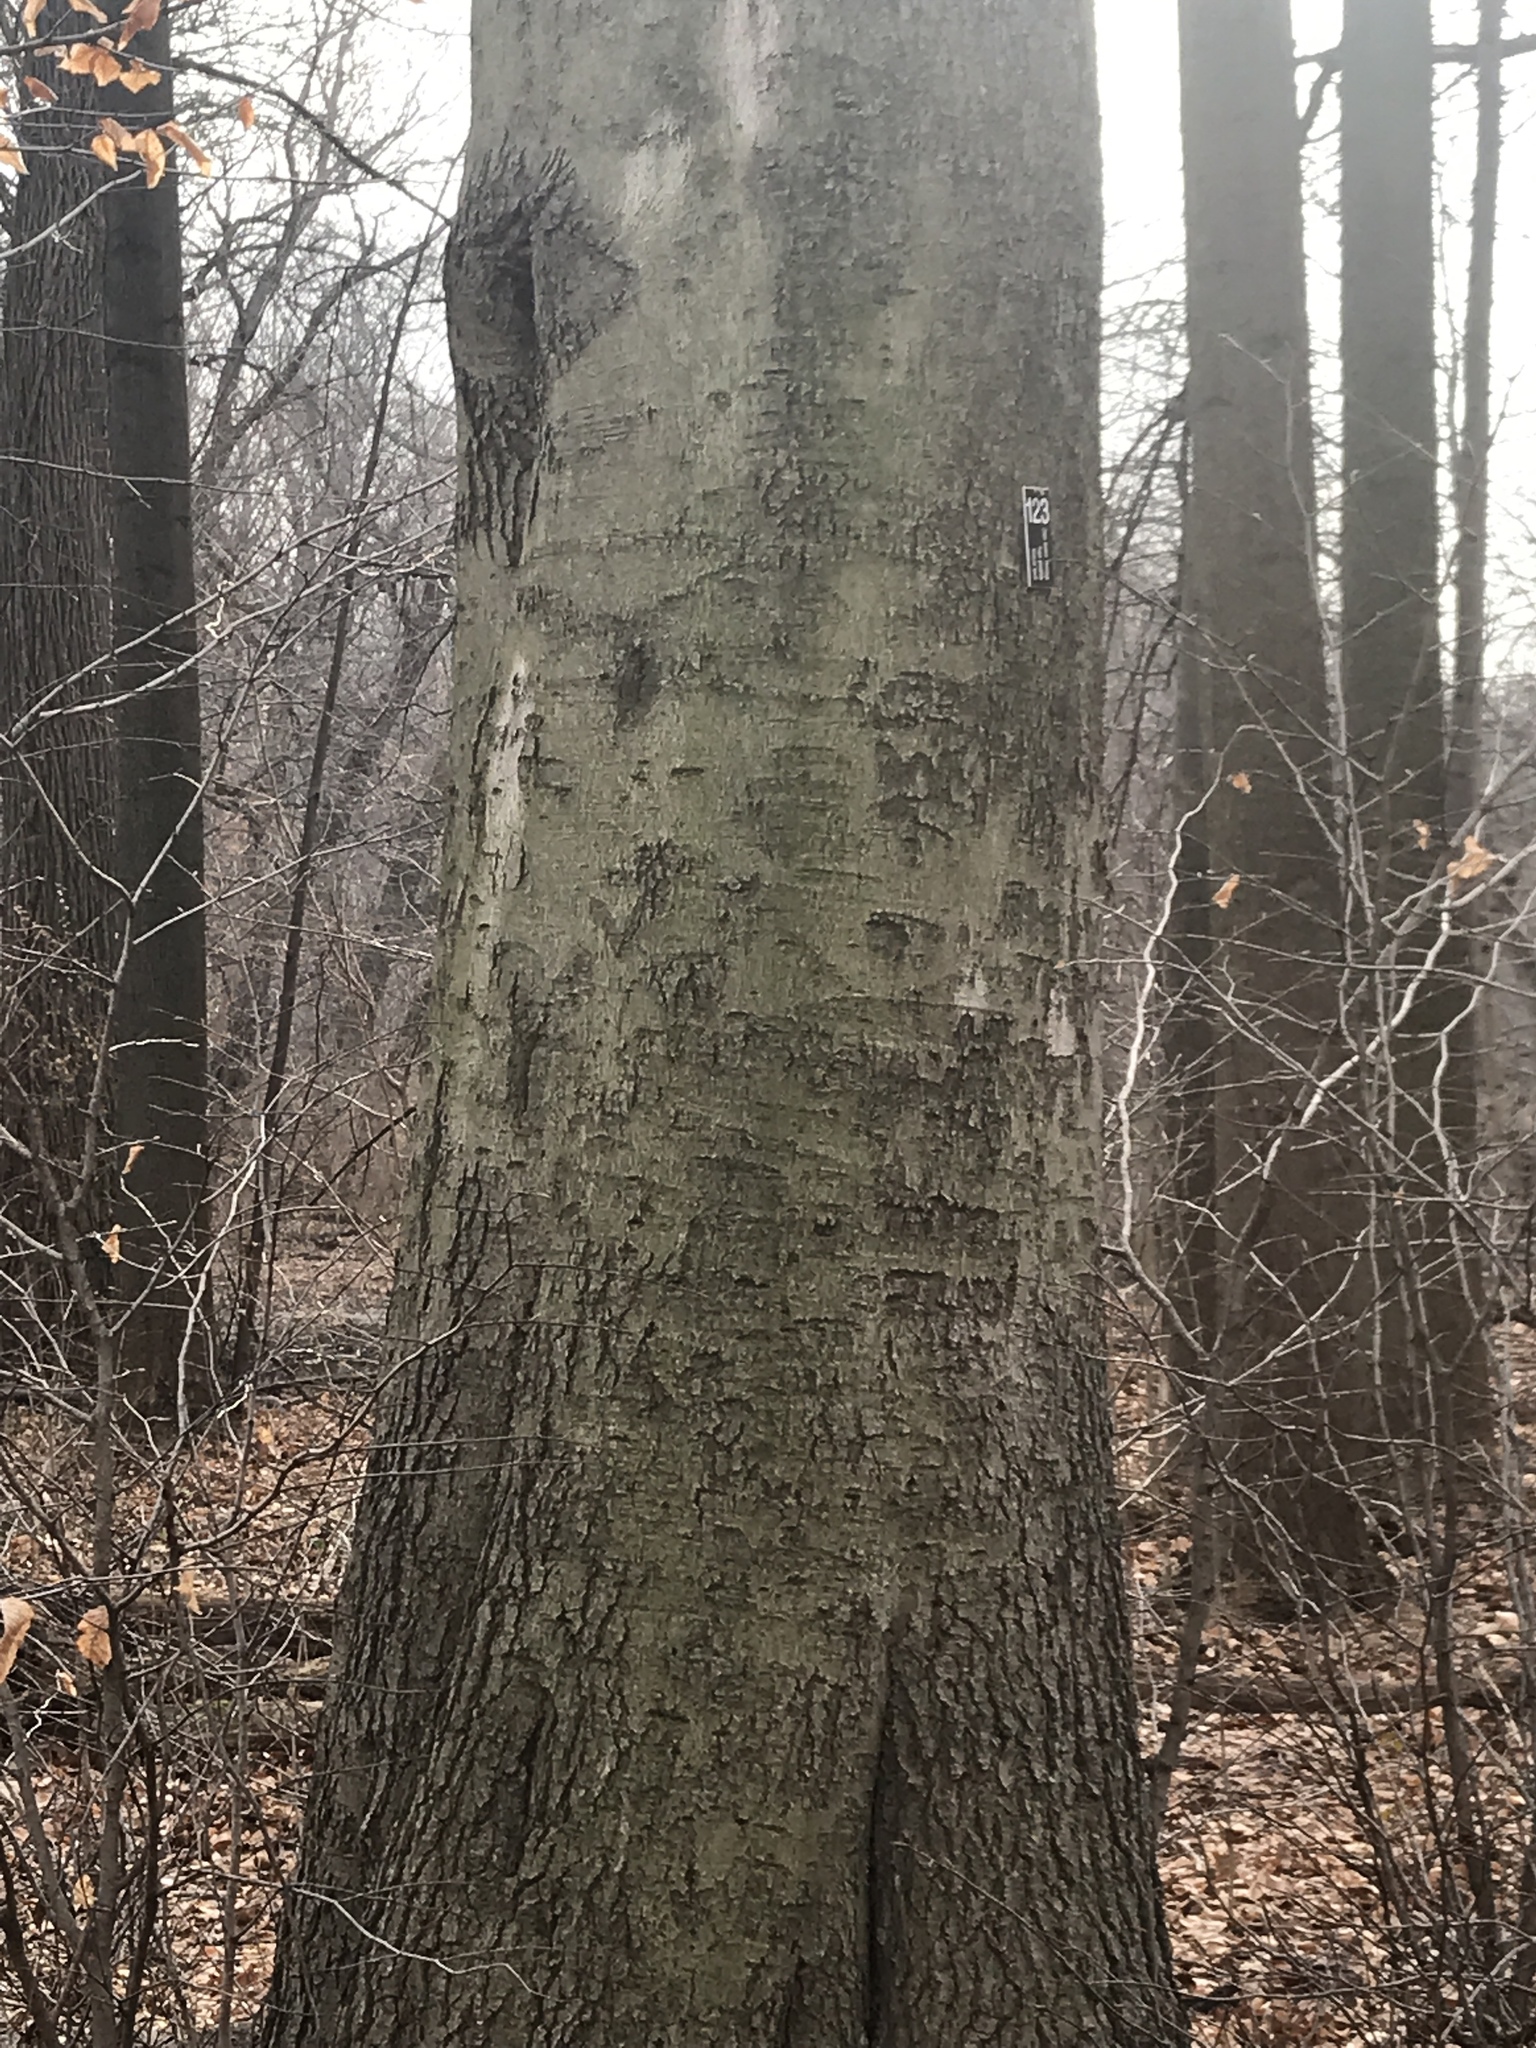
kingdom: Plantae
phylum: Tracheophyta
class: Magnoliopsida
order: Fagales
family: Fagaceae
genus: Fagus
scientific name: Fagus grandifolia
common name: American beech
